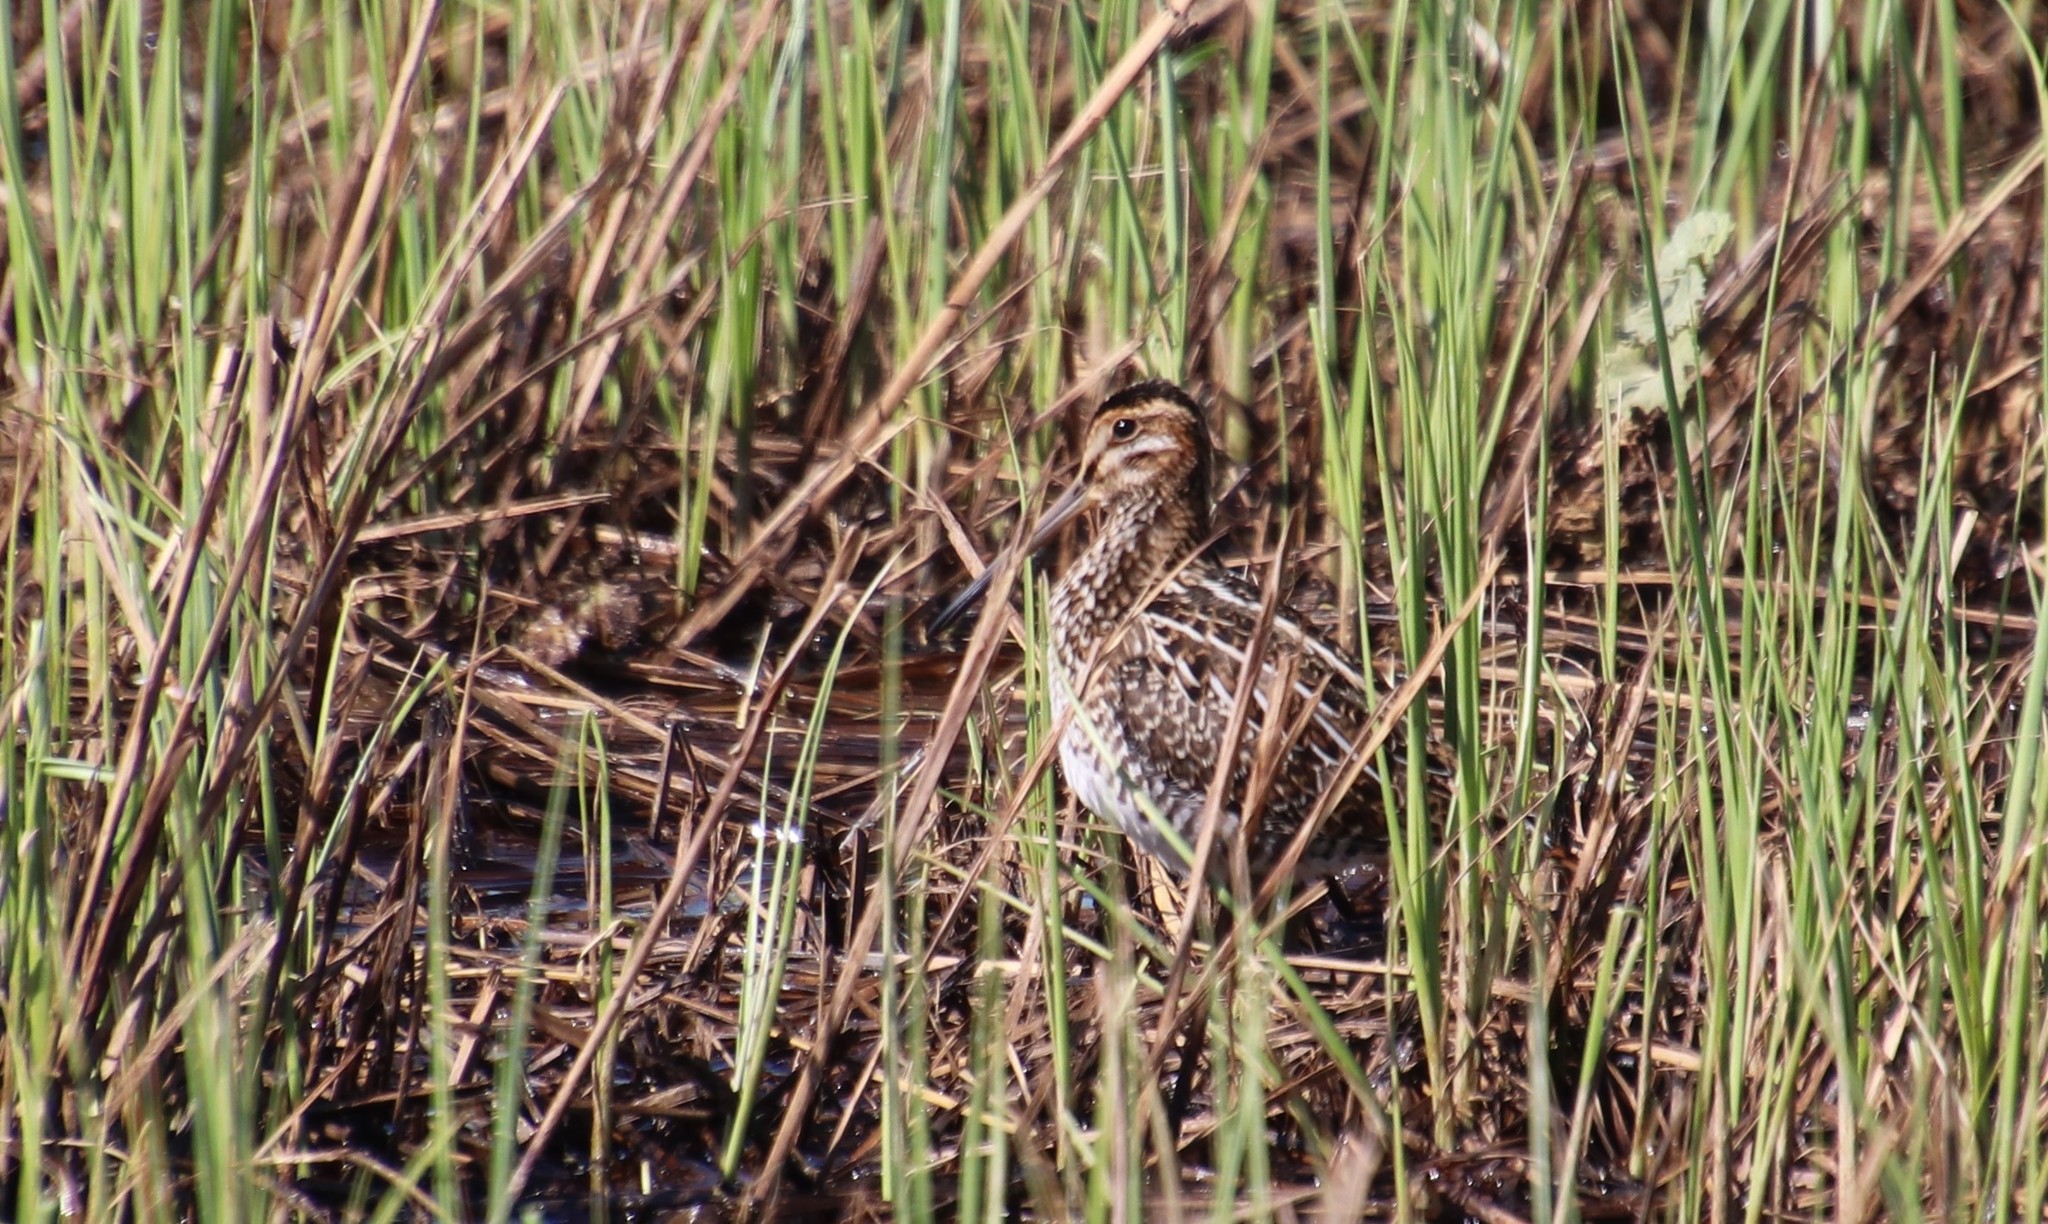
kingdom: Animalia
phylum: Chordata
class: Aves
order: Charadriiformes
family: Scolopacidae
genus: Gallinago
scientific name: Gallinago delicata
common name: Wilson's snipe
